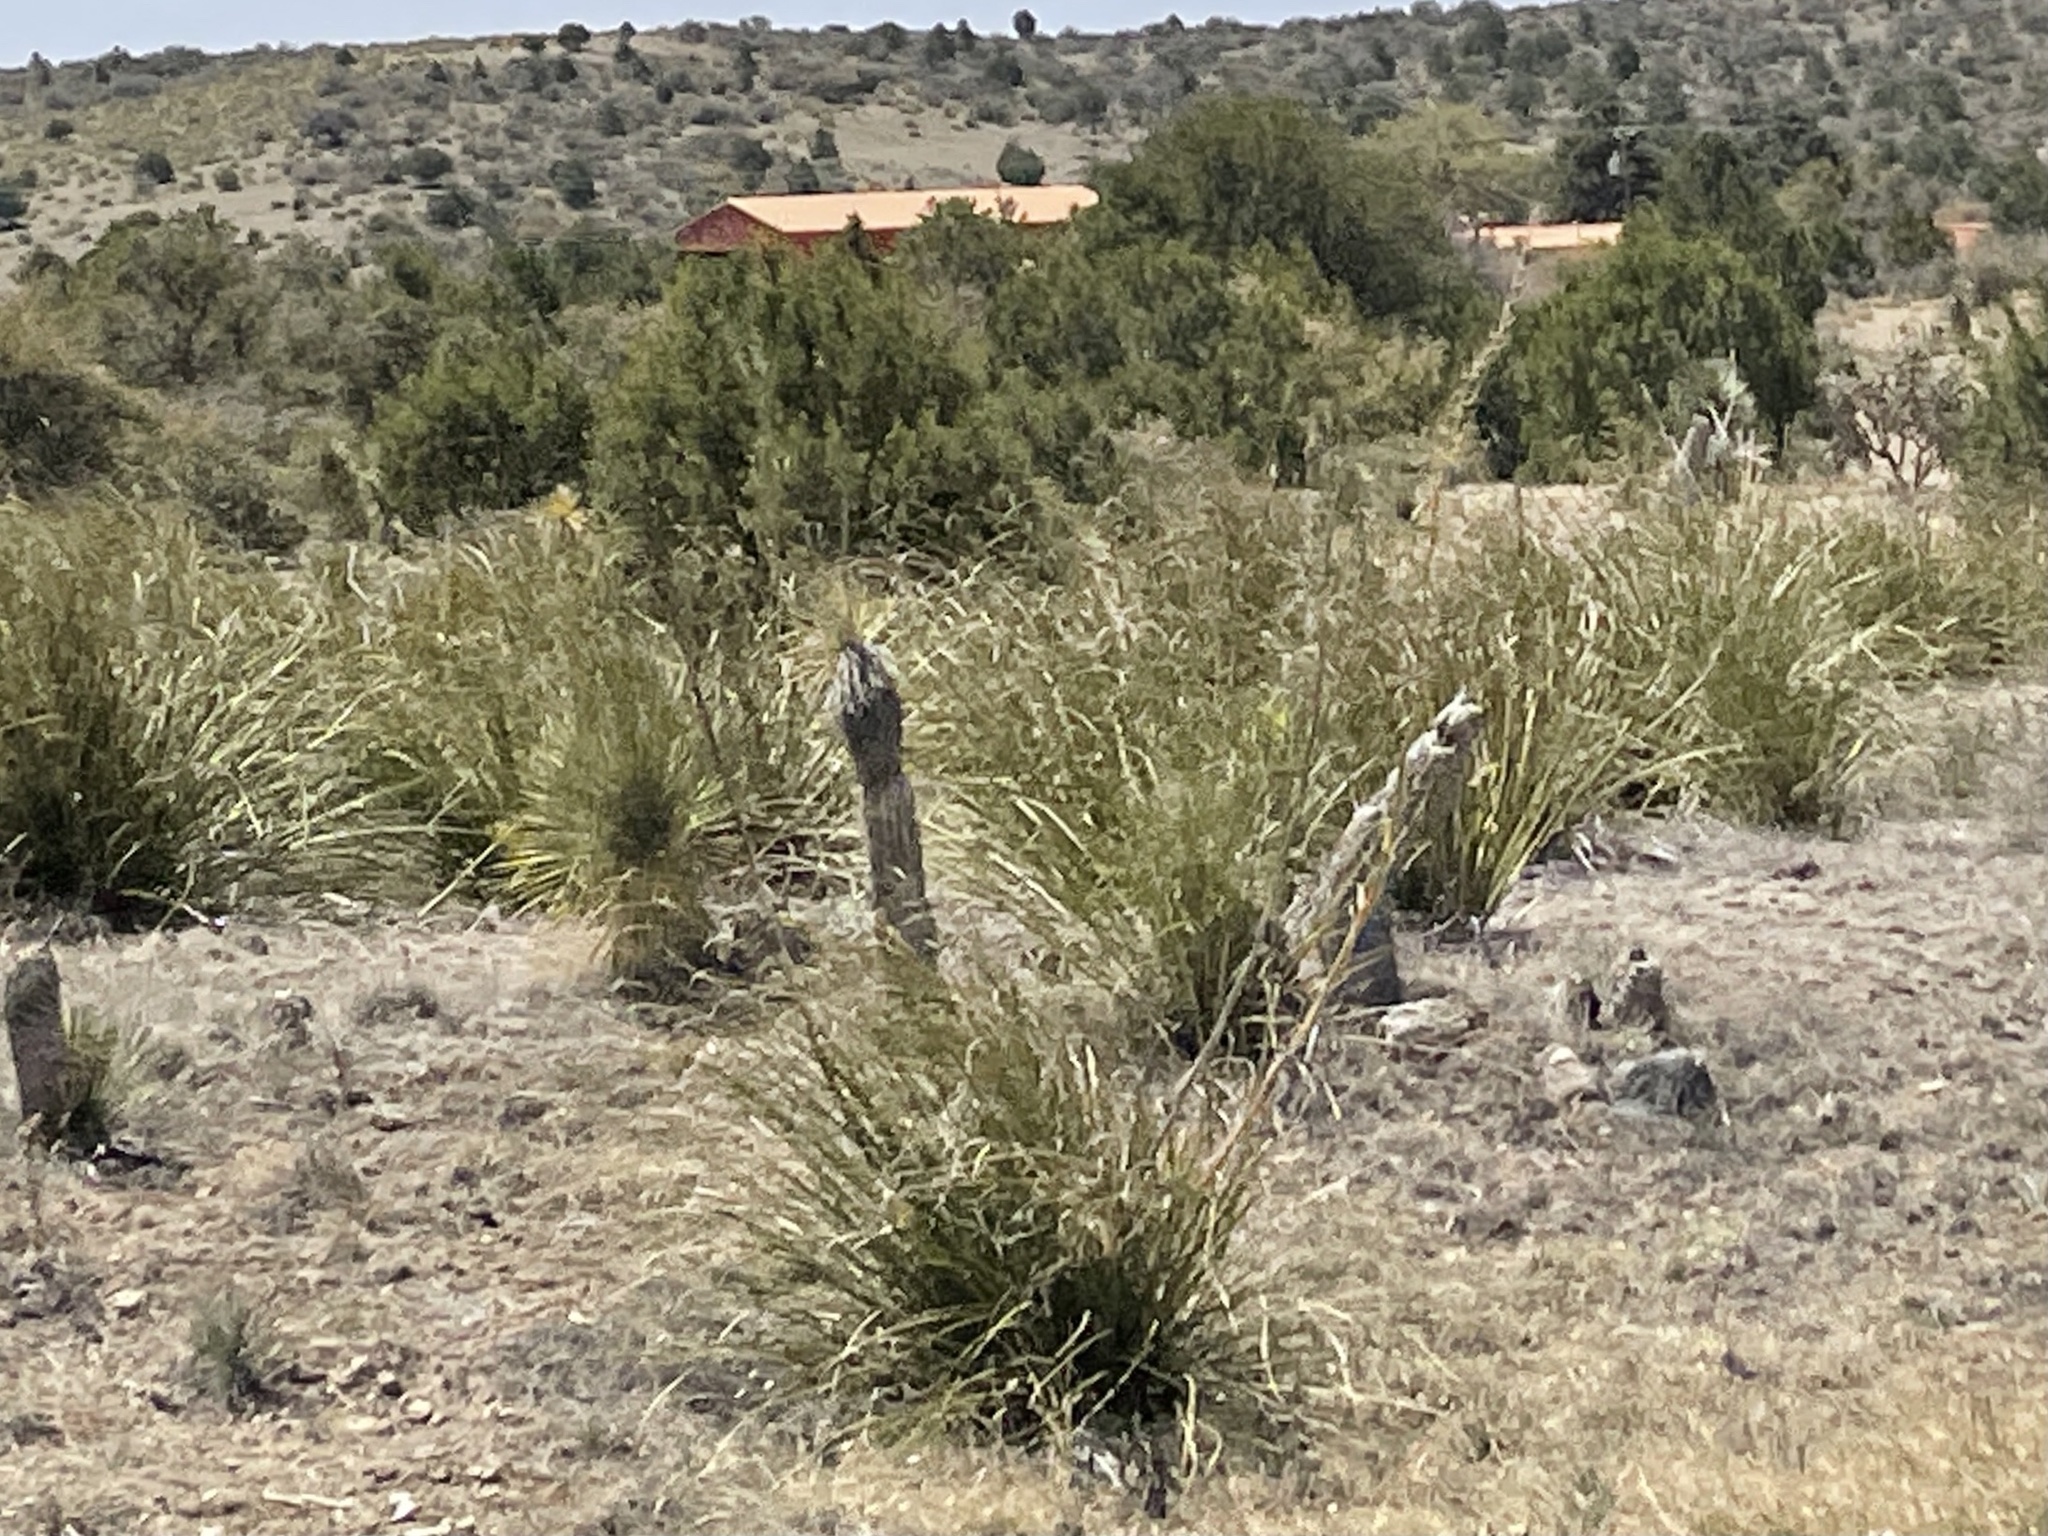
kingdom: Plantae
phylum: Tracheophyta
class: Liliopsida
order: Asparagales
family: Asparagaceae
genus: Nolina
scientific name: Nolina microcarpa
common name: Bear-grass
